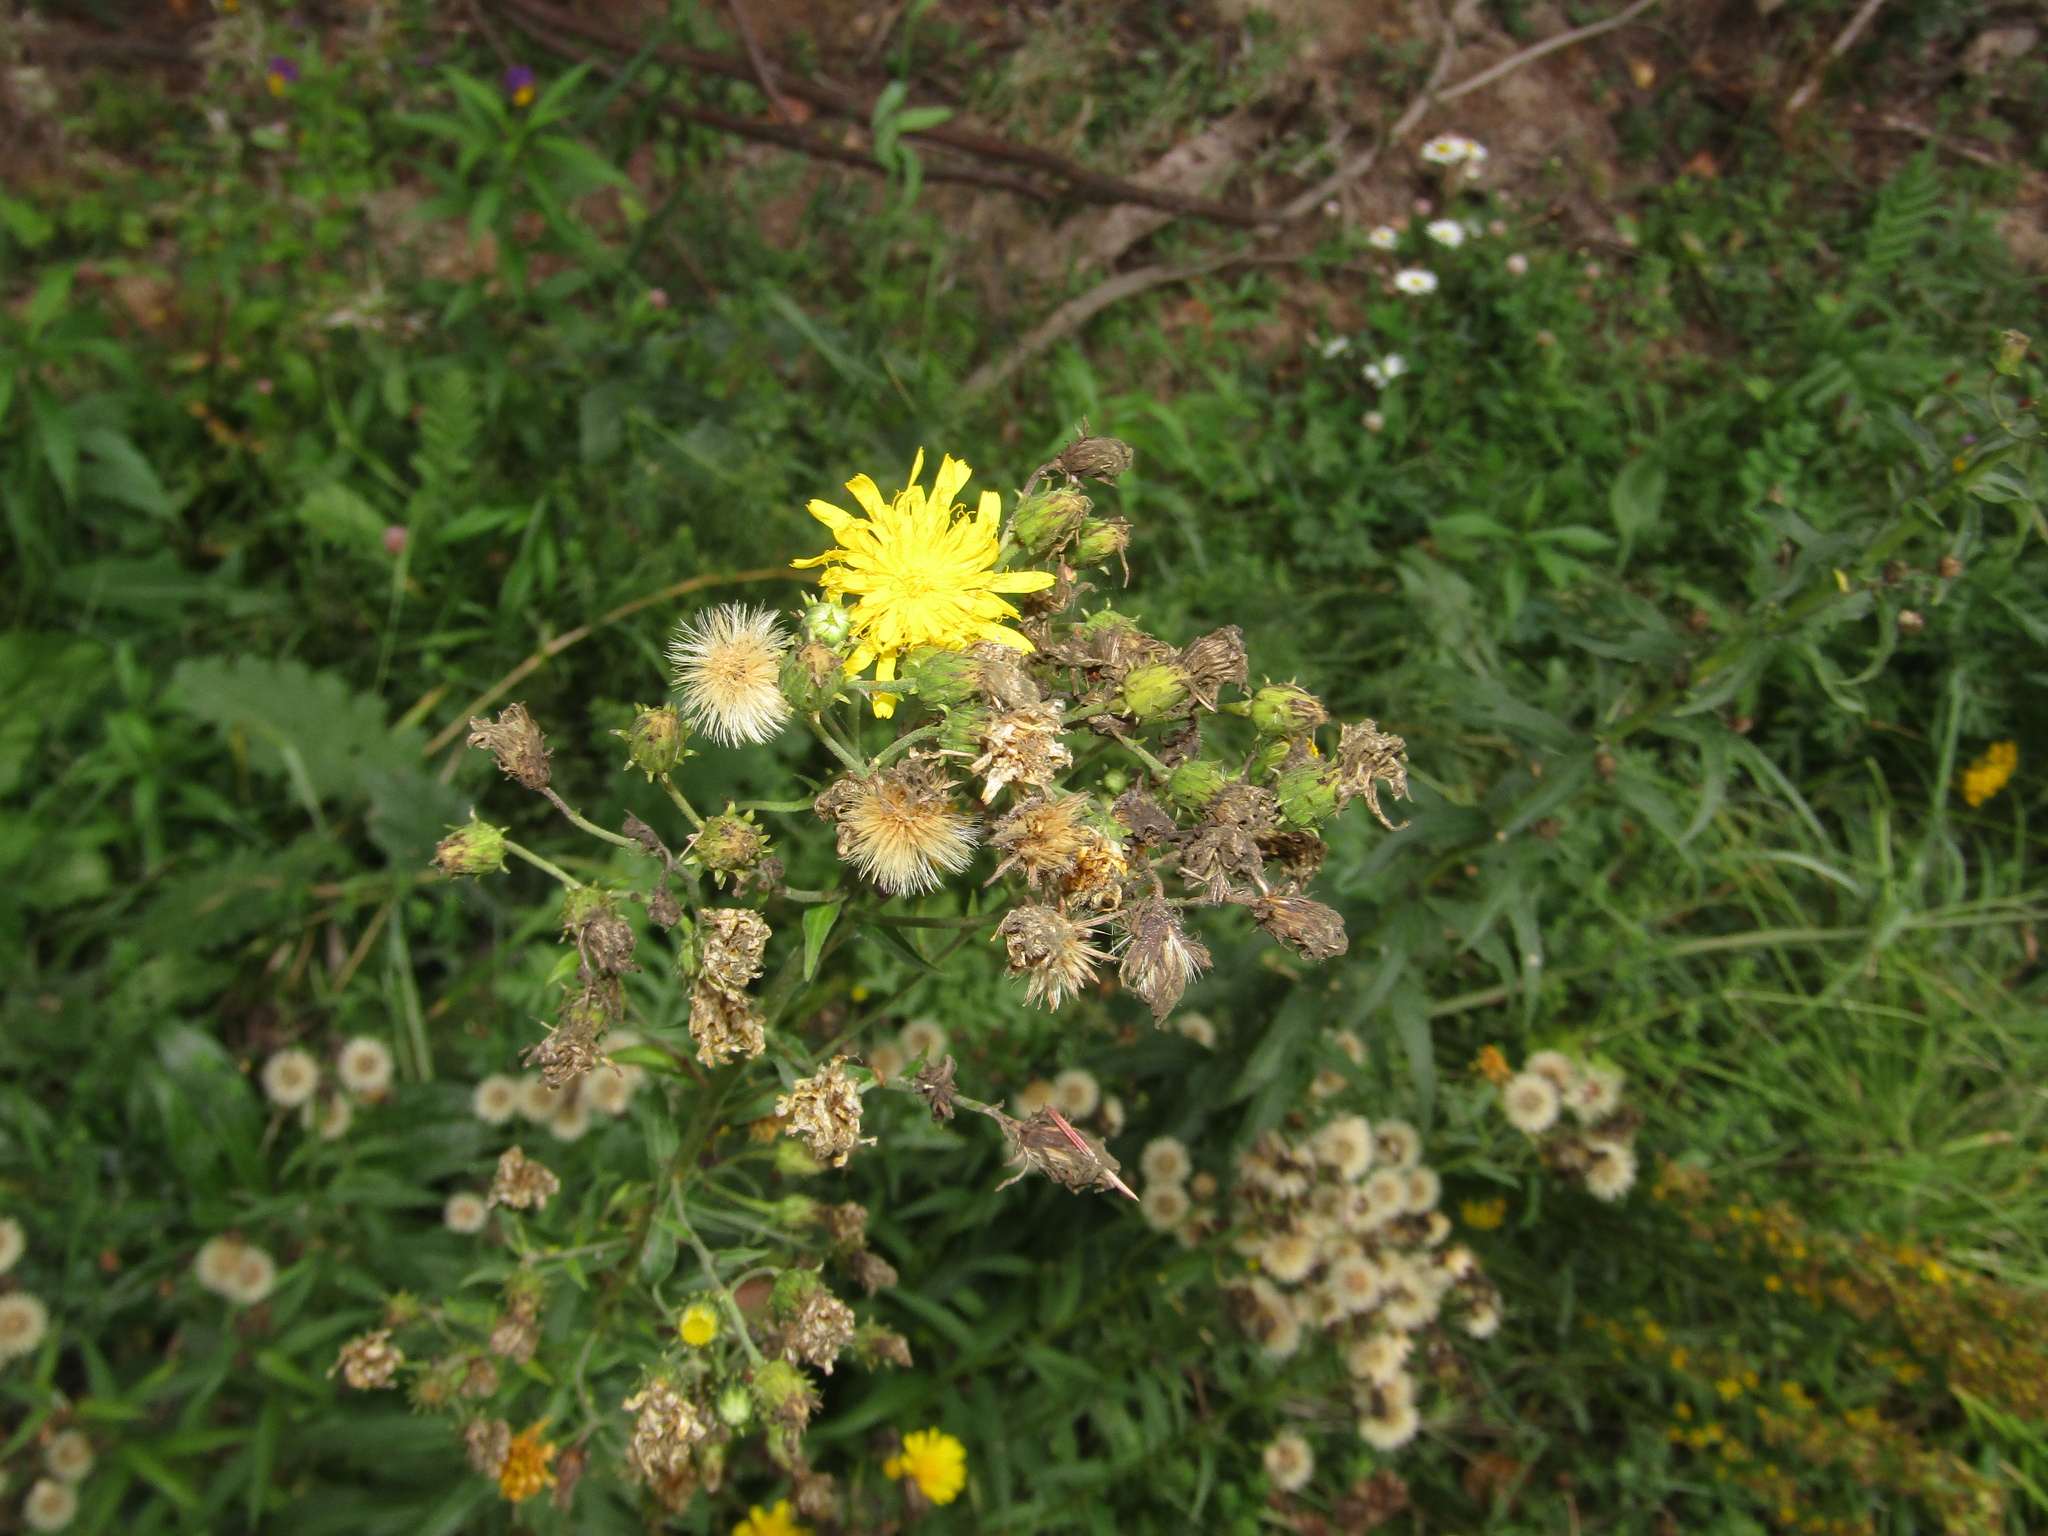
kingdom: Plantae
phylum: Tracheophyta
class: Magnoliopsida
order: Asterales
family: Asteraceae
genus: Hieracium
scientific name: Hieracium umbellatum
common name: Northern hawkweed
